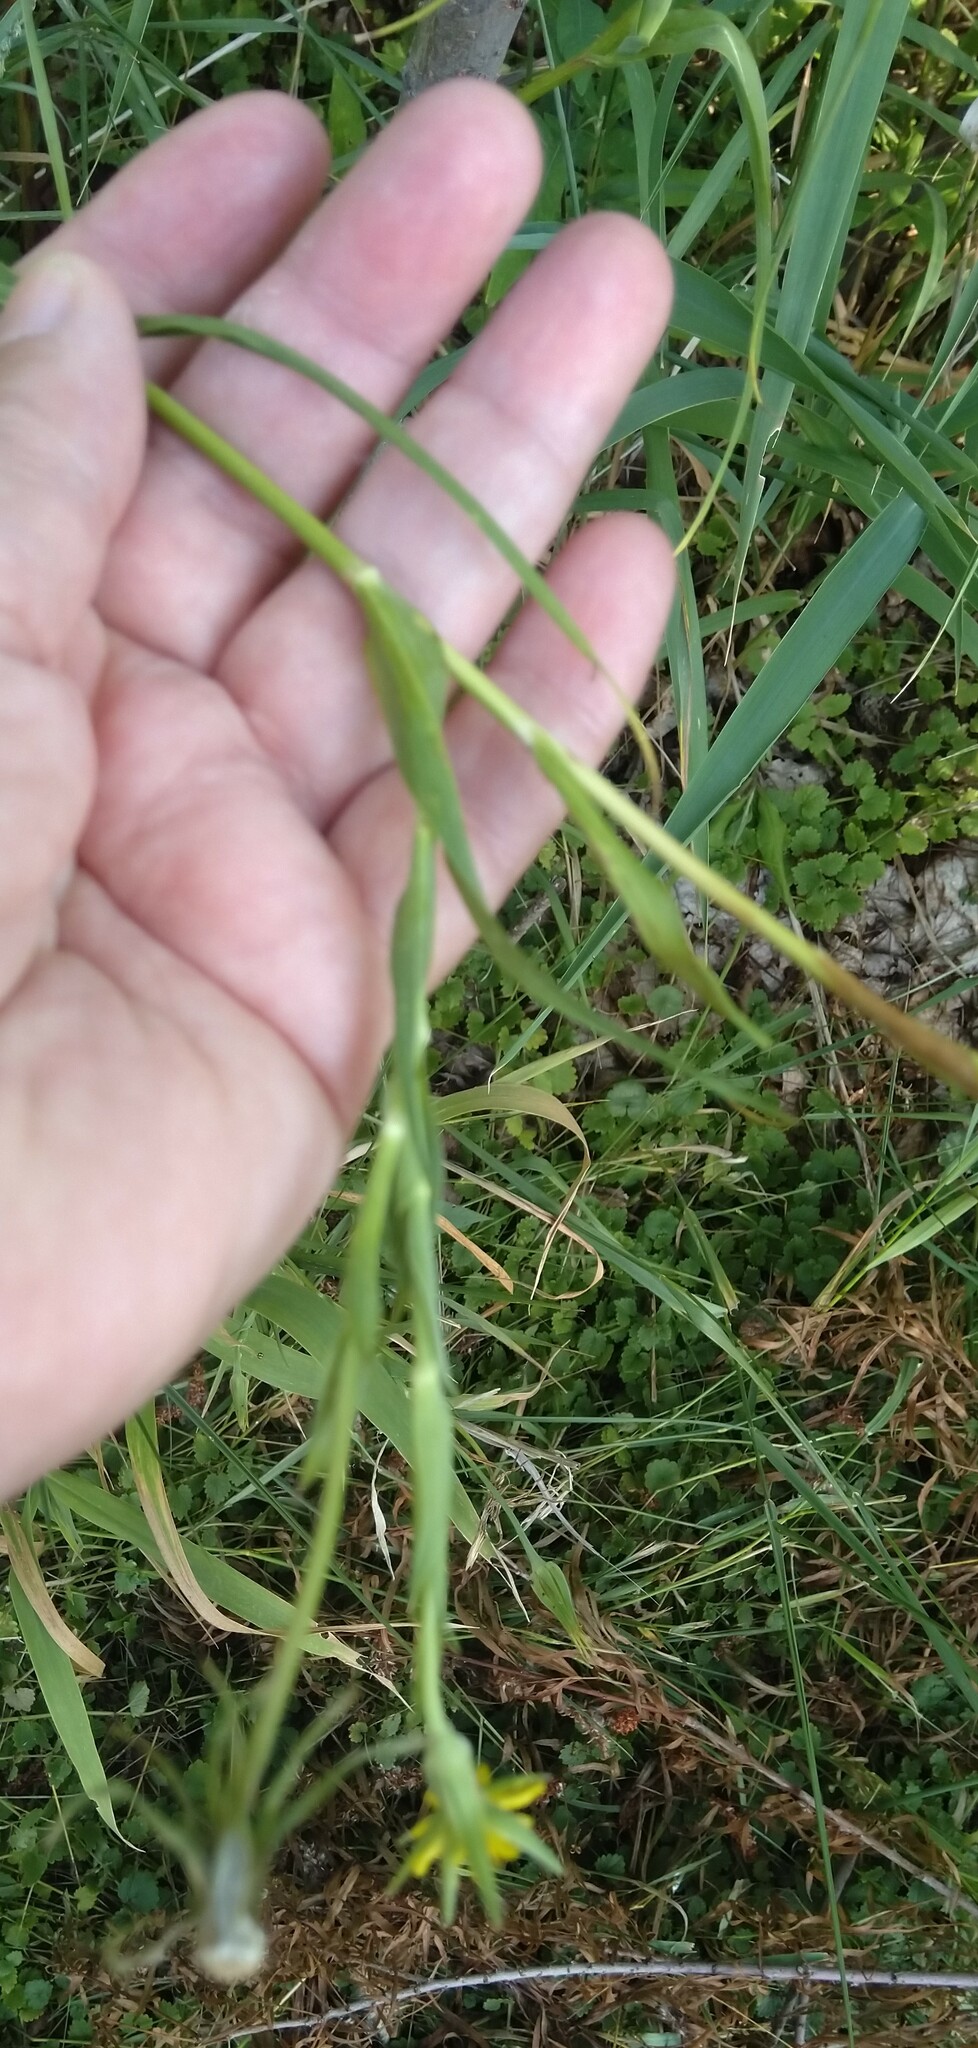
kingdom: Plantae
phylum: Tracheophyta
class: Magnoliopsida
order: Asterales
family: Asteraceae
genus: Tragopogon
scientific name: Tragopogon dubius
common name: Yellow salsify
